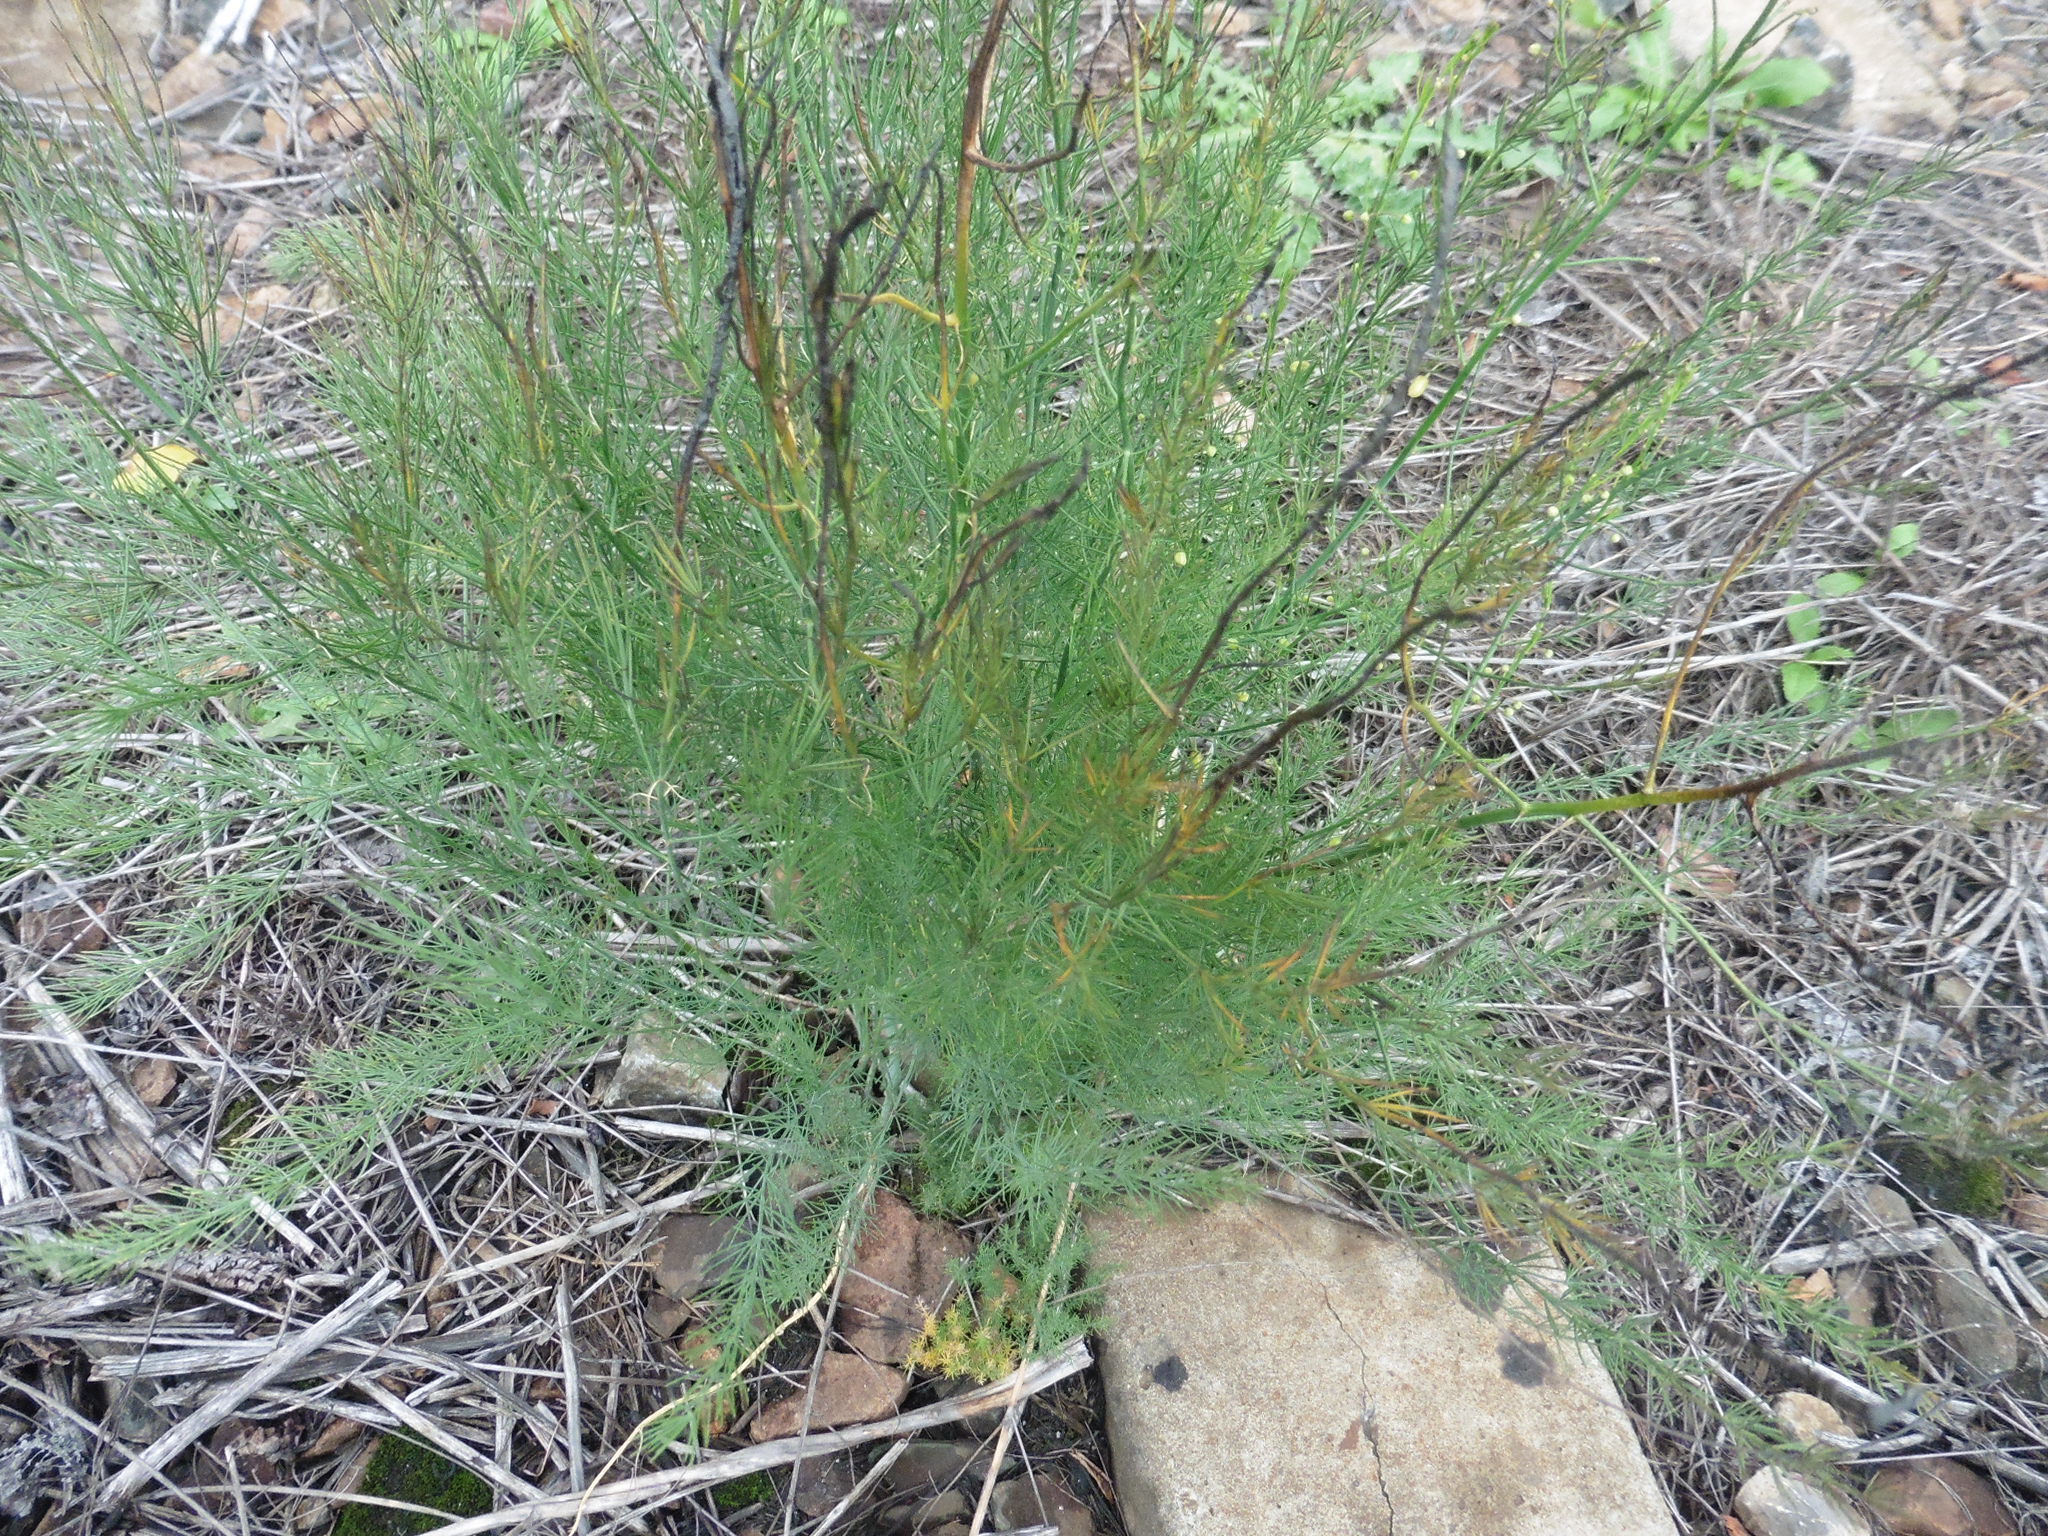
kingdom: Plantae
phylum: Tracheophyta
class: Liliopsida
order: Asparagales
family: Asparagaceae
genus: Asparagus
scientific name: Asparagus officinalis
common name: Garden asparagus
